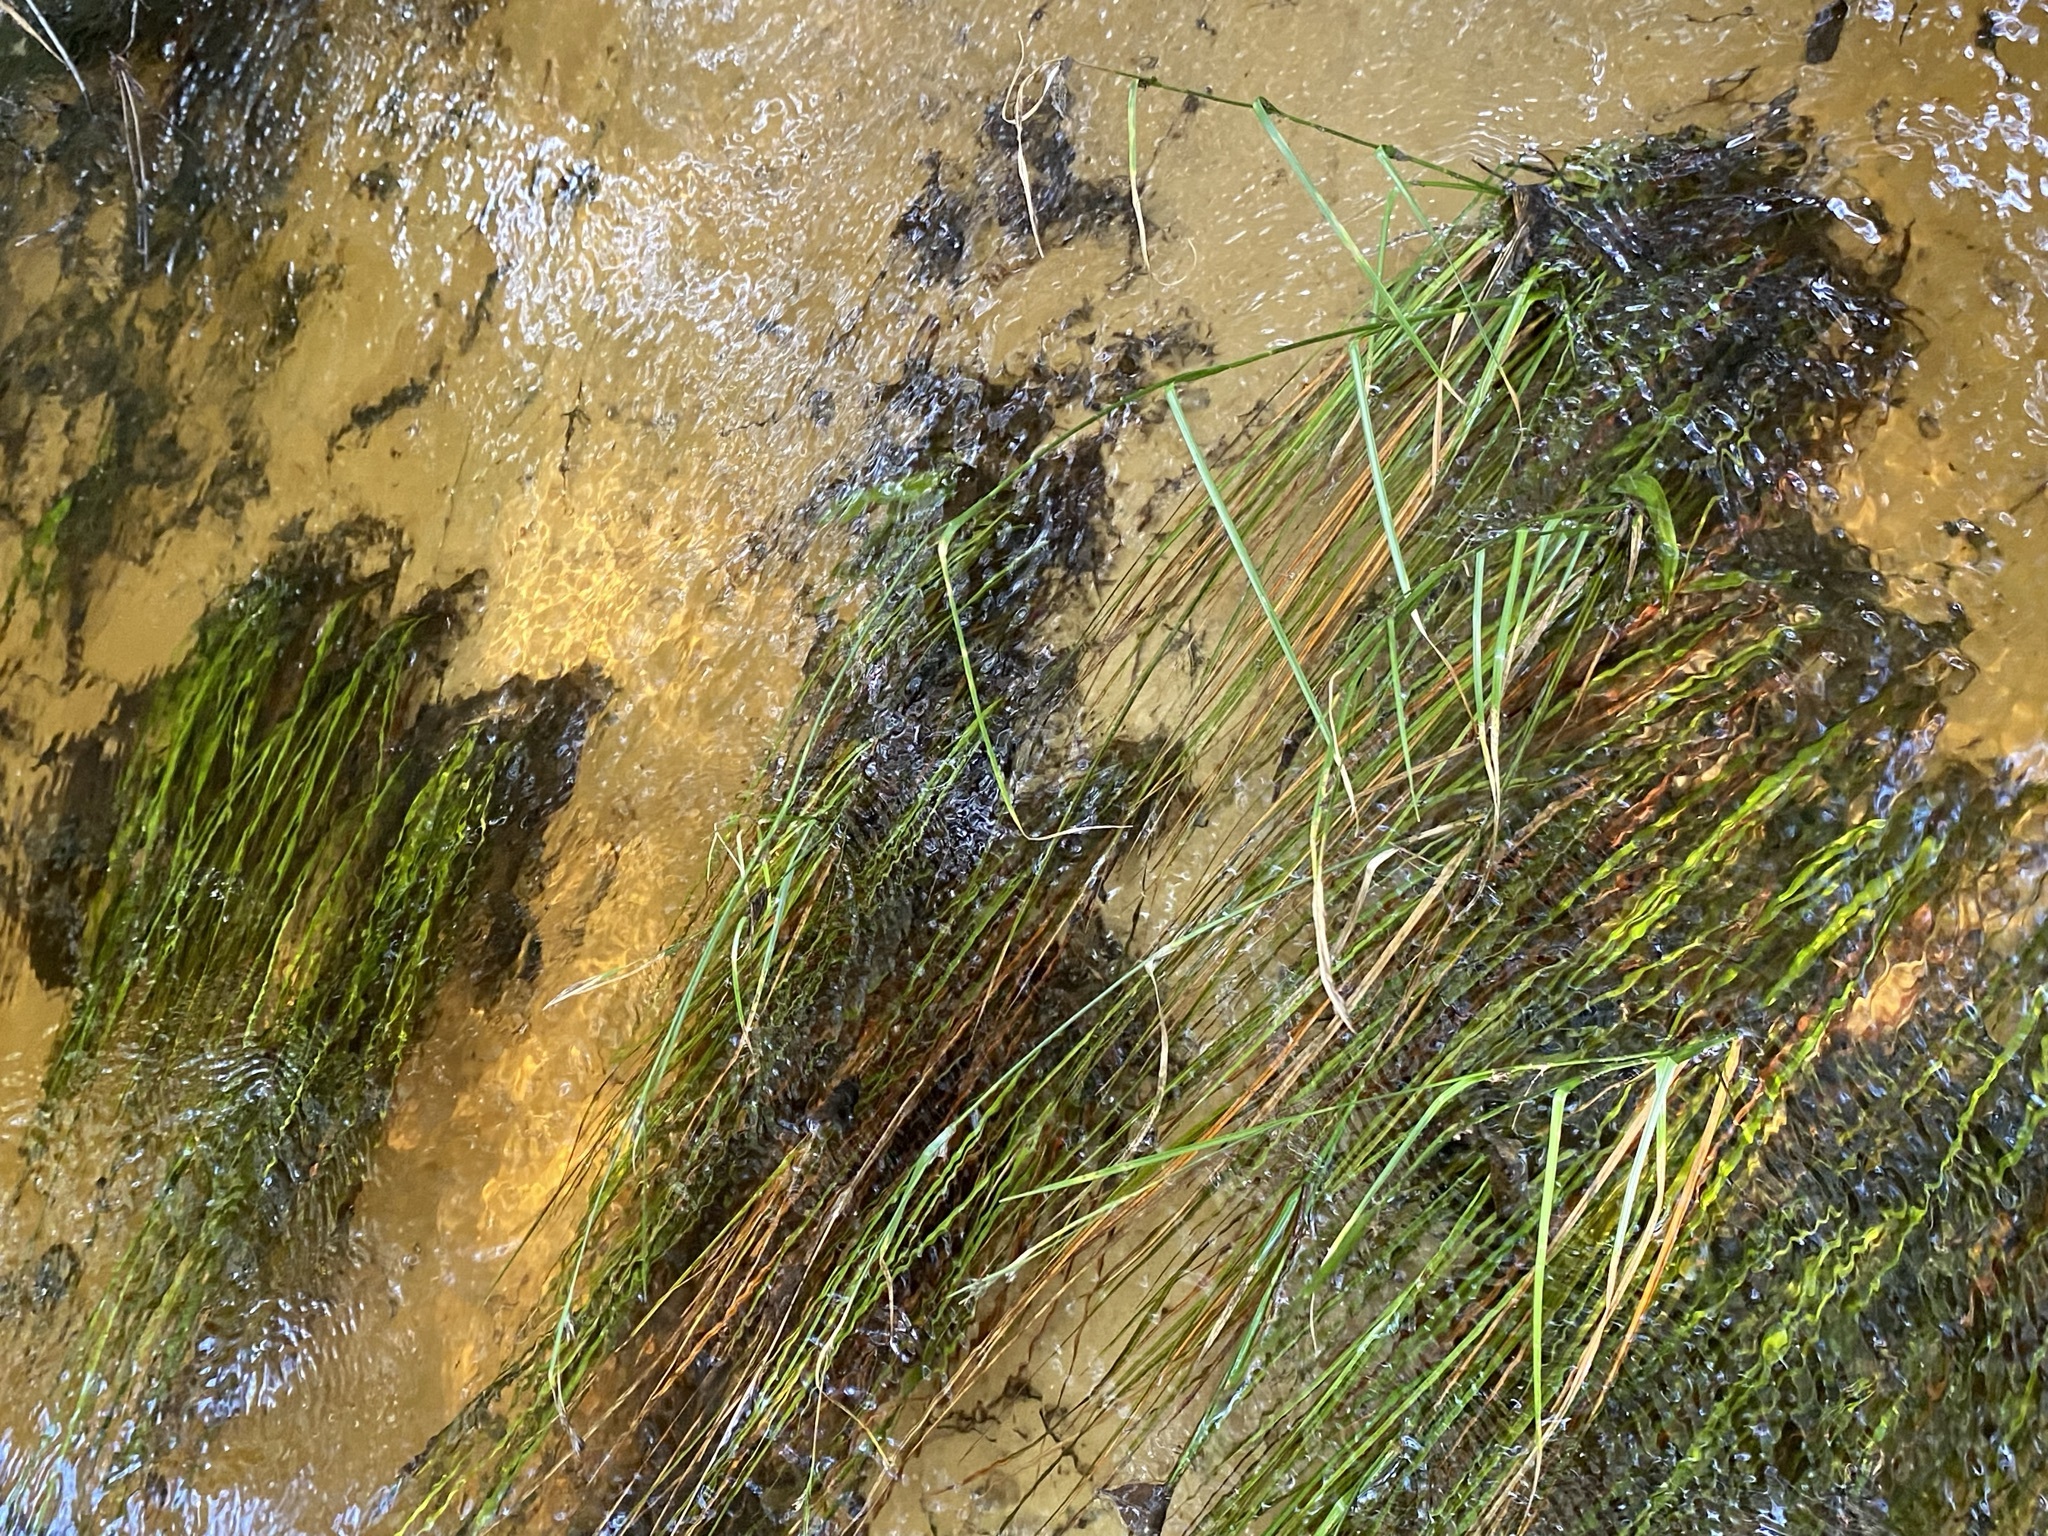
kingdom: Plantae
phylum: Tracheophyta
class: Liliopsida
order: Poales
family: Cyperaceae
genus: Rhynchospora
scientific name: Rhynchospora crinipes
